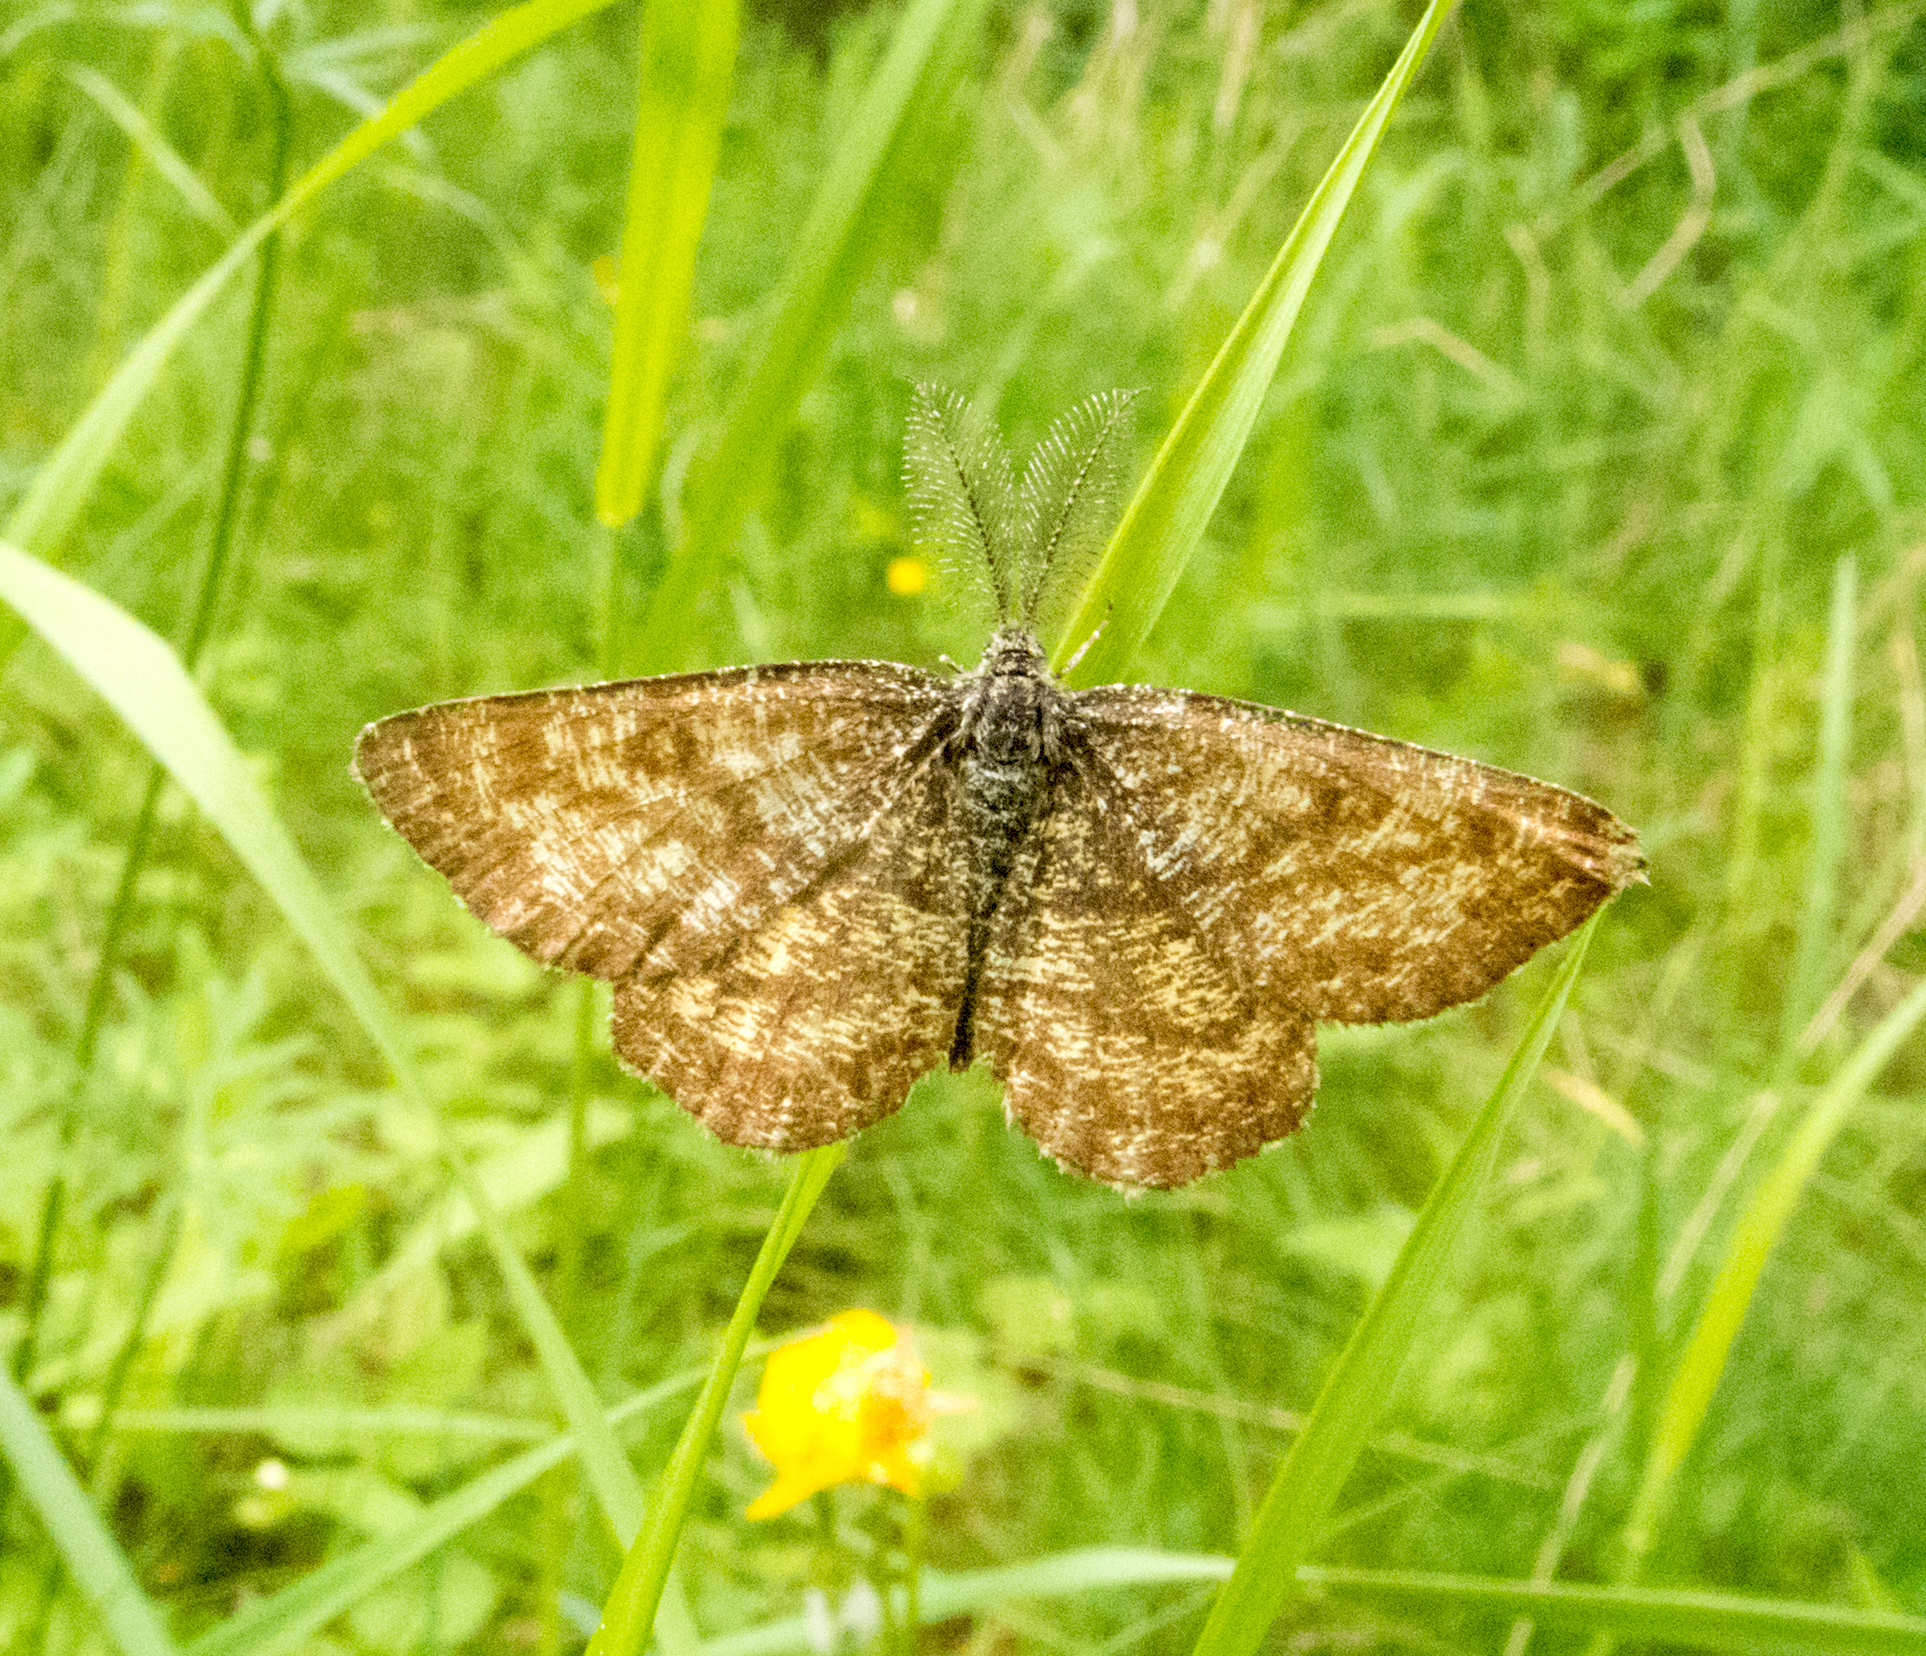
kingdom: Animalia
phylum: Arthropoda
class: Insecta
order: Lepidoptera
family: Geometridae
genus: Ematurga
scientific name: Ematurga atomaria
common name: Common heath
